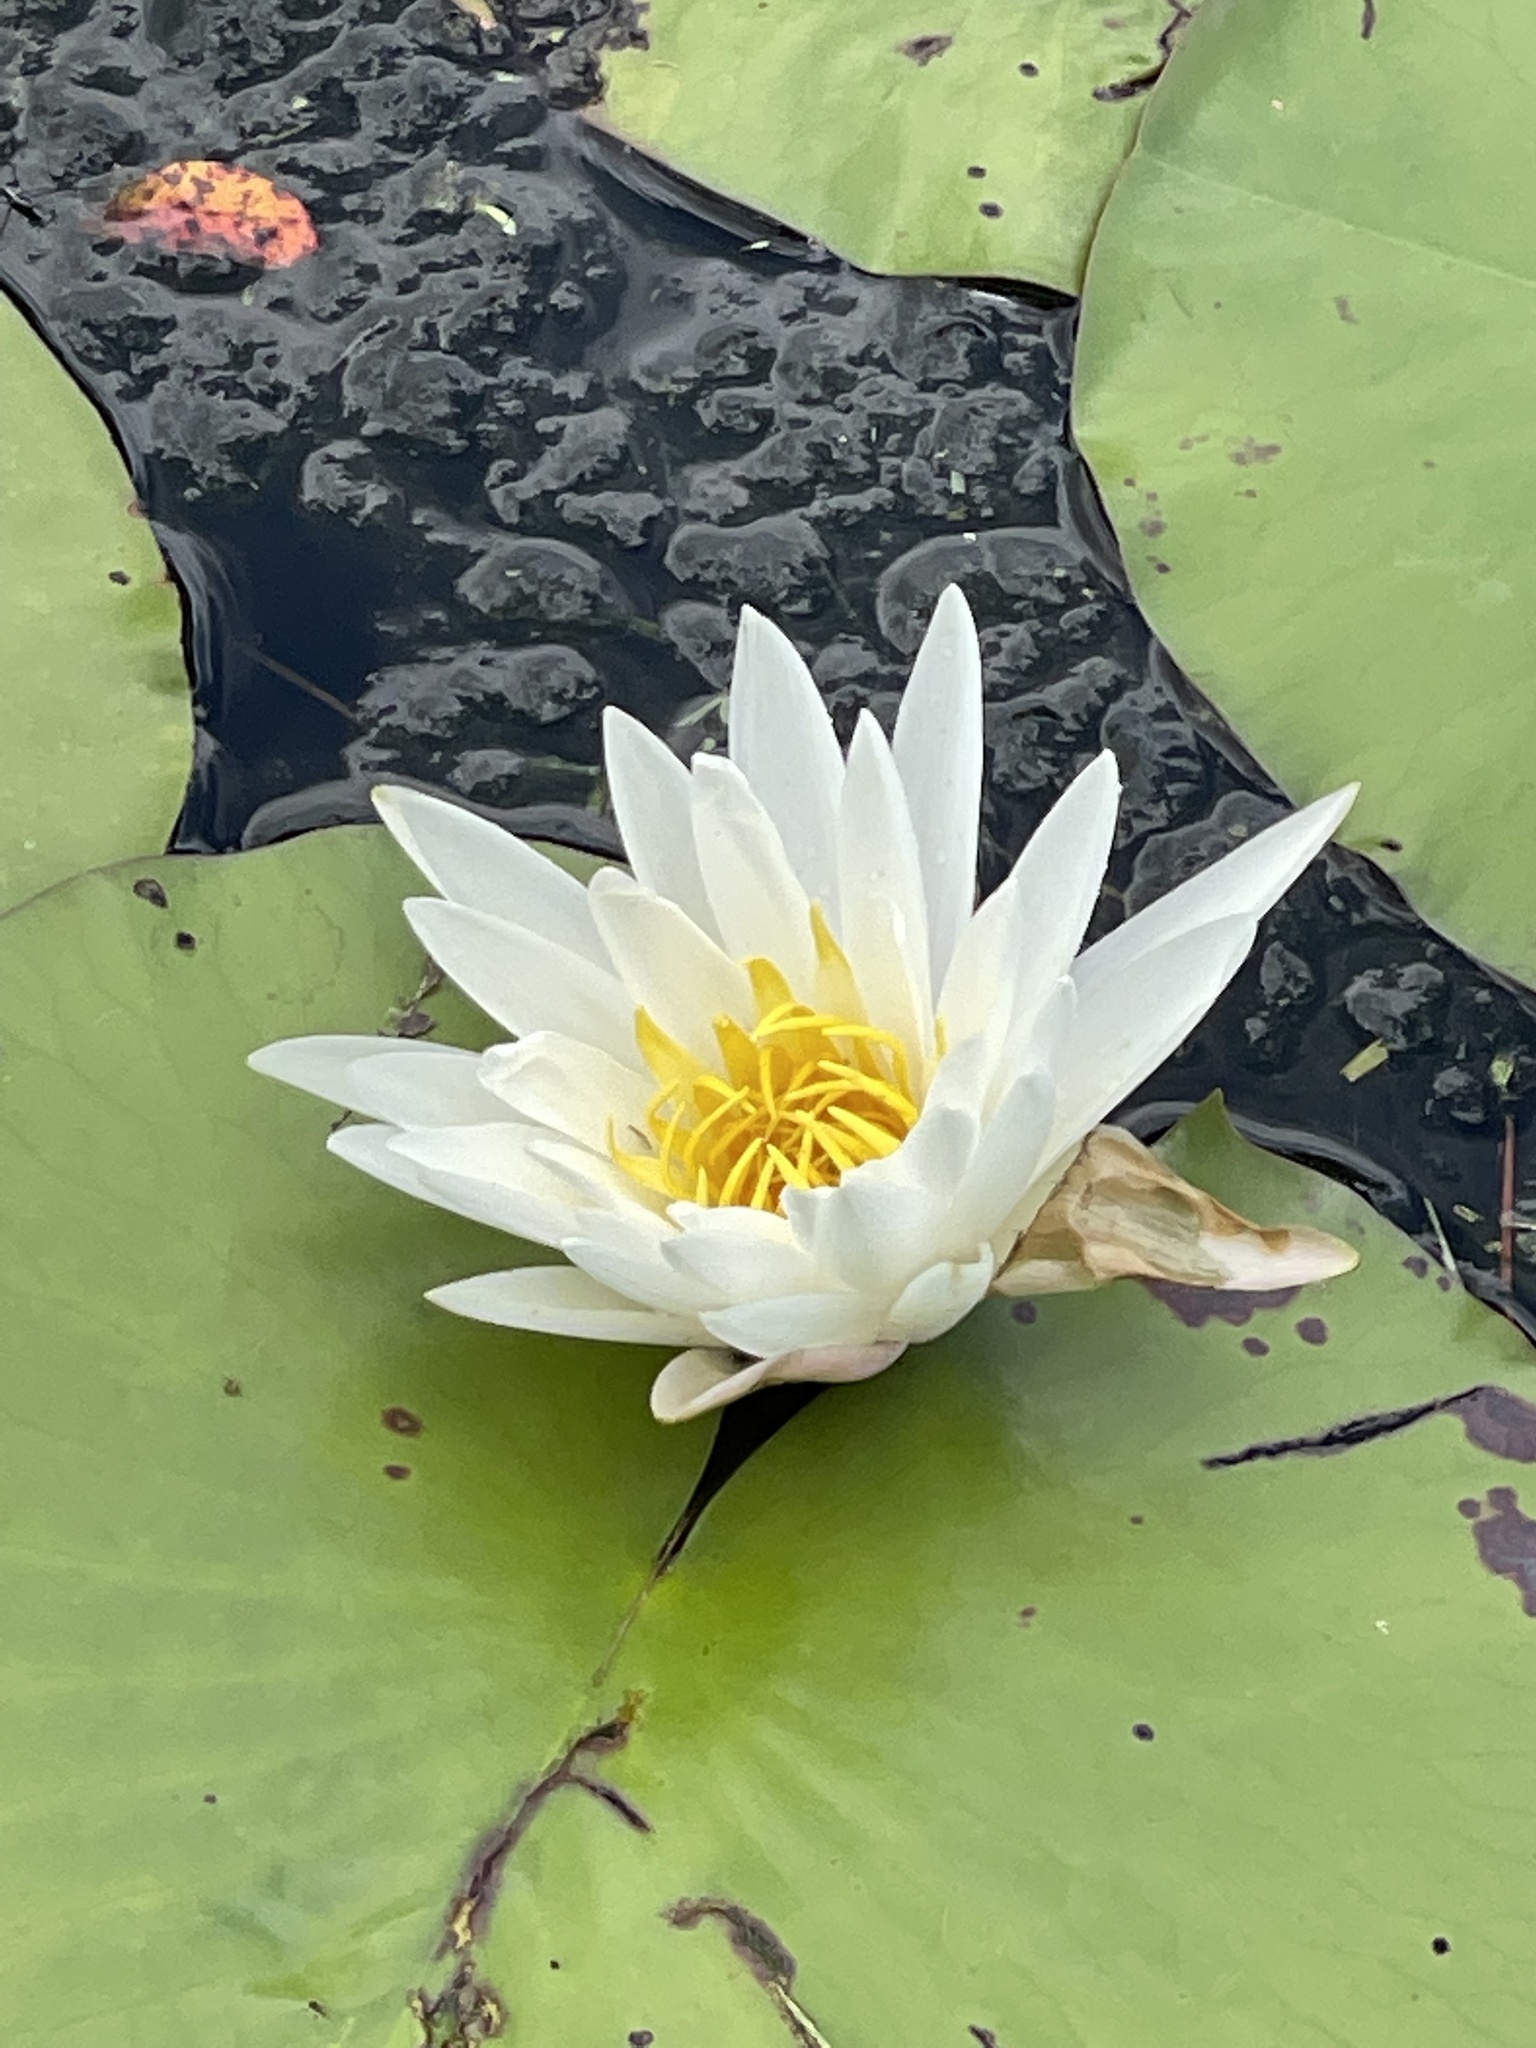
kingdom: Plantae
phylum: Tracheophyta
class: Magnoliopsida
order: Nymphaeales
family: Nymphaeaceae
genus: Nymphaea
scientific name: Nymphaea odorata
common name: Fragrant water-lily
